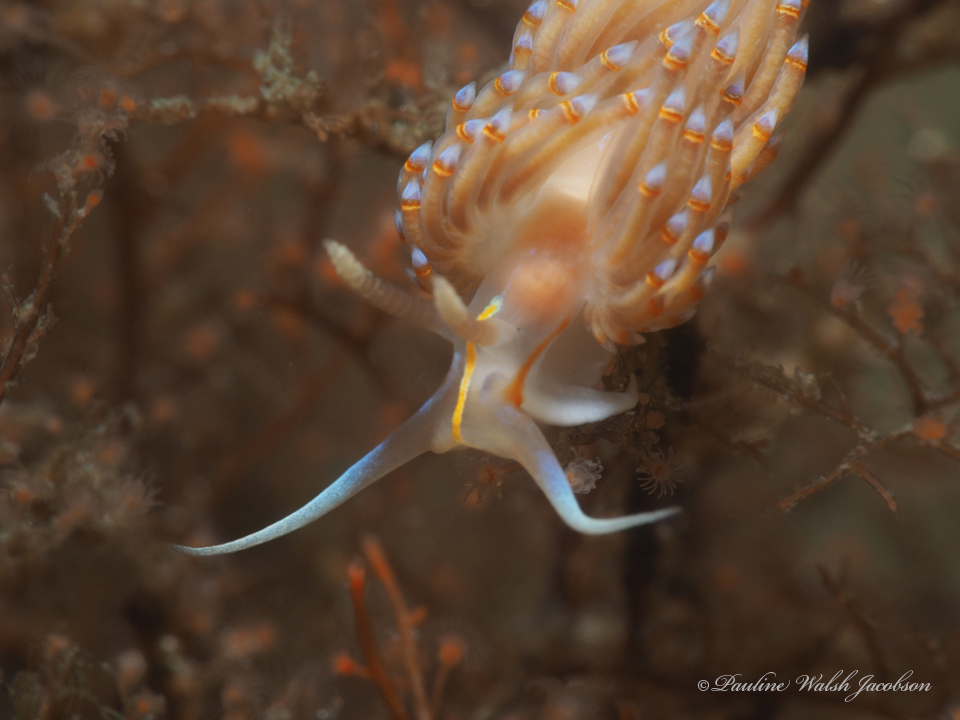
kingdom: Animalia
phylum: Mollusca
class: Gastropoda
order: Nudibranchia
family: Myrrhinidae
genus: Dondice
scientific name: Dondice jupiteriensis
